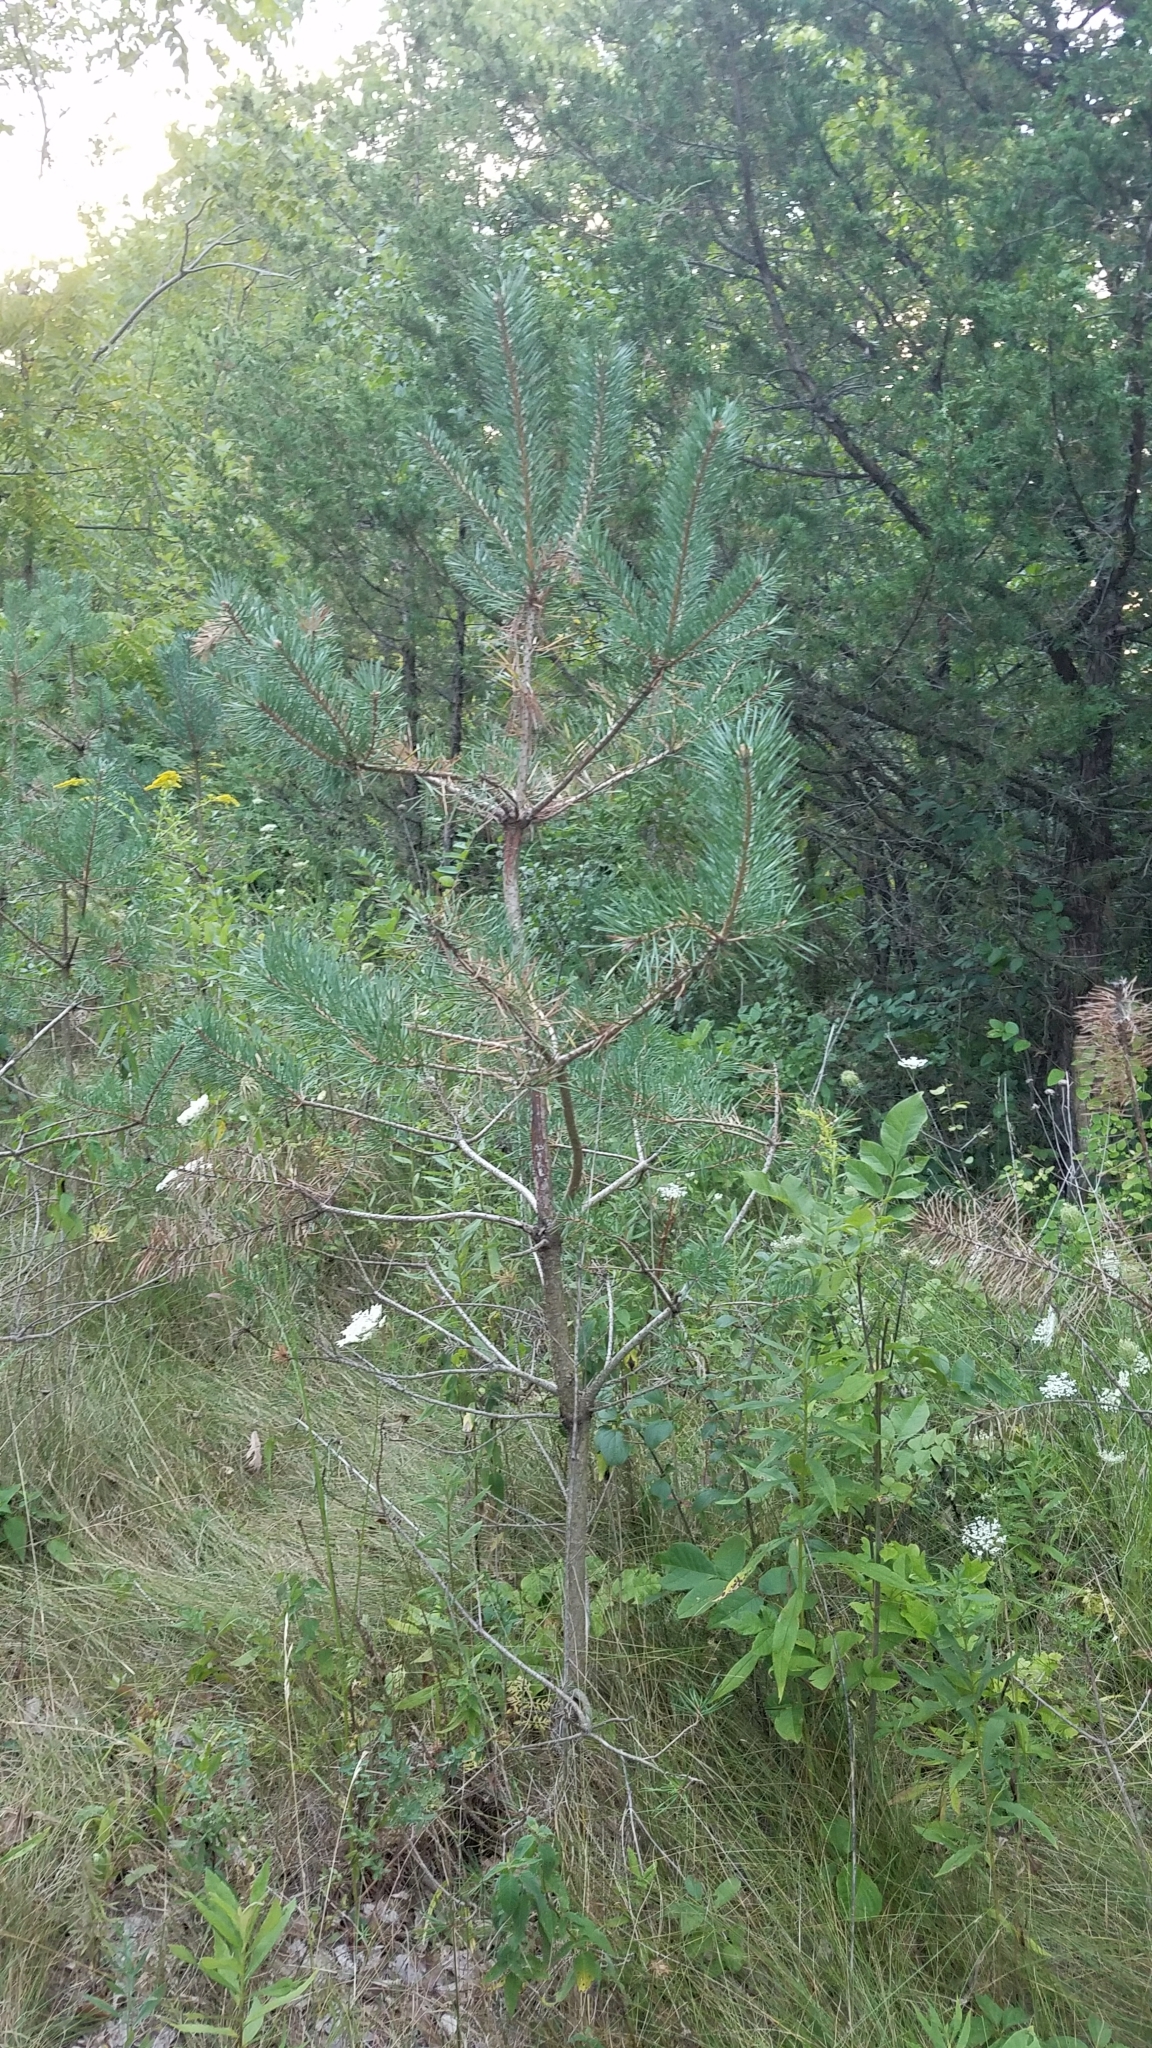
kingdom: Plantae
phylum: Tracheophyta
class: Pinopsida
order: Pinales
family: Pinaceae
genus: Pinus
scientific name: Pinus resinosa
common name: Norway pine
